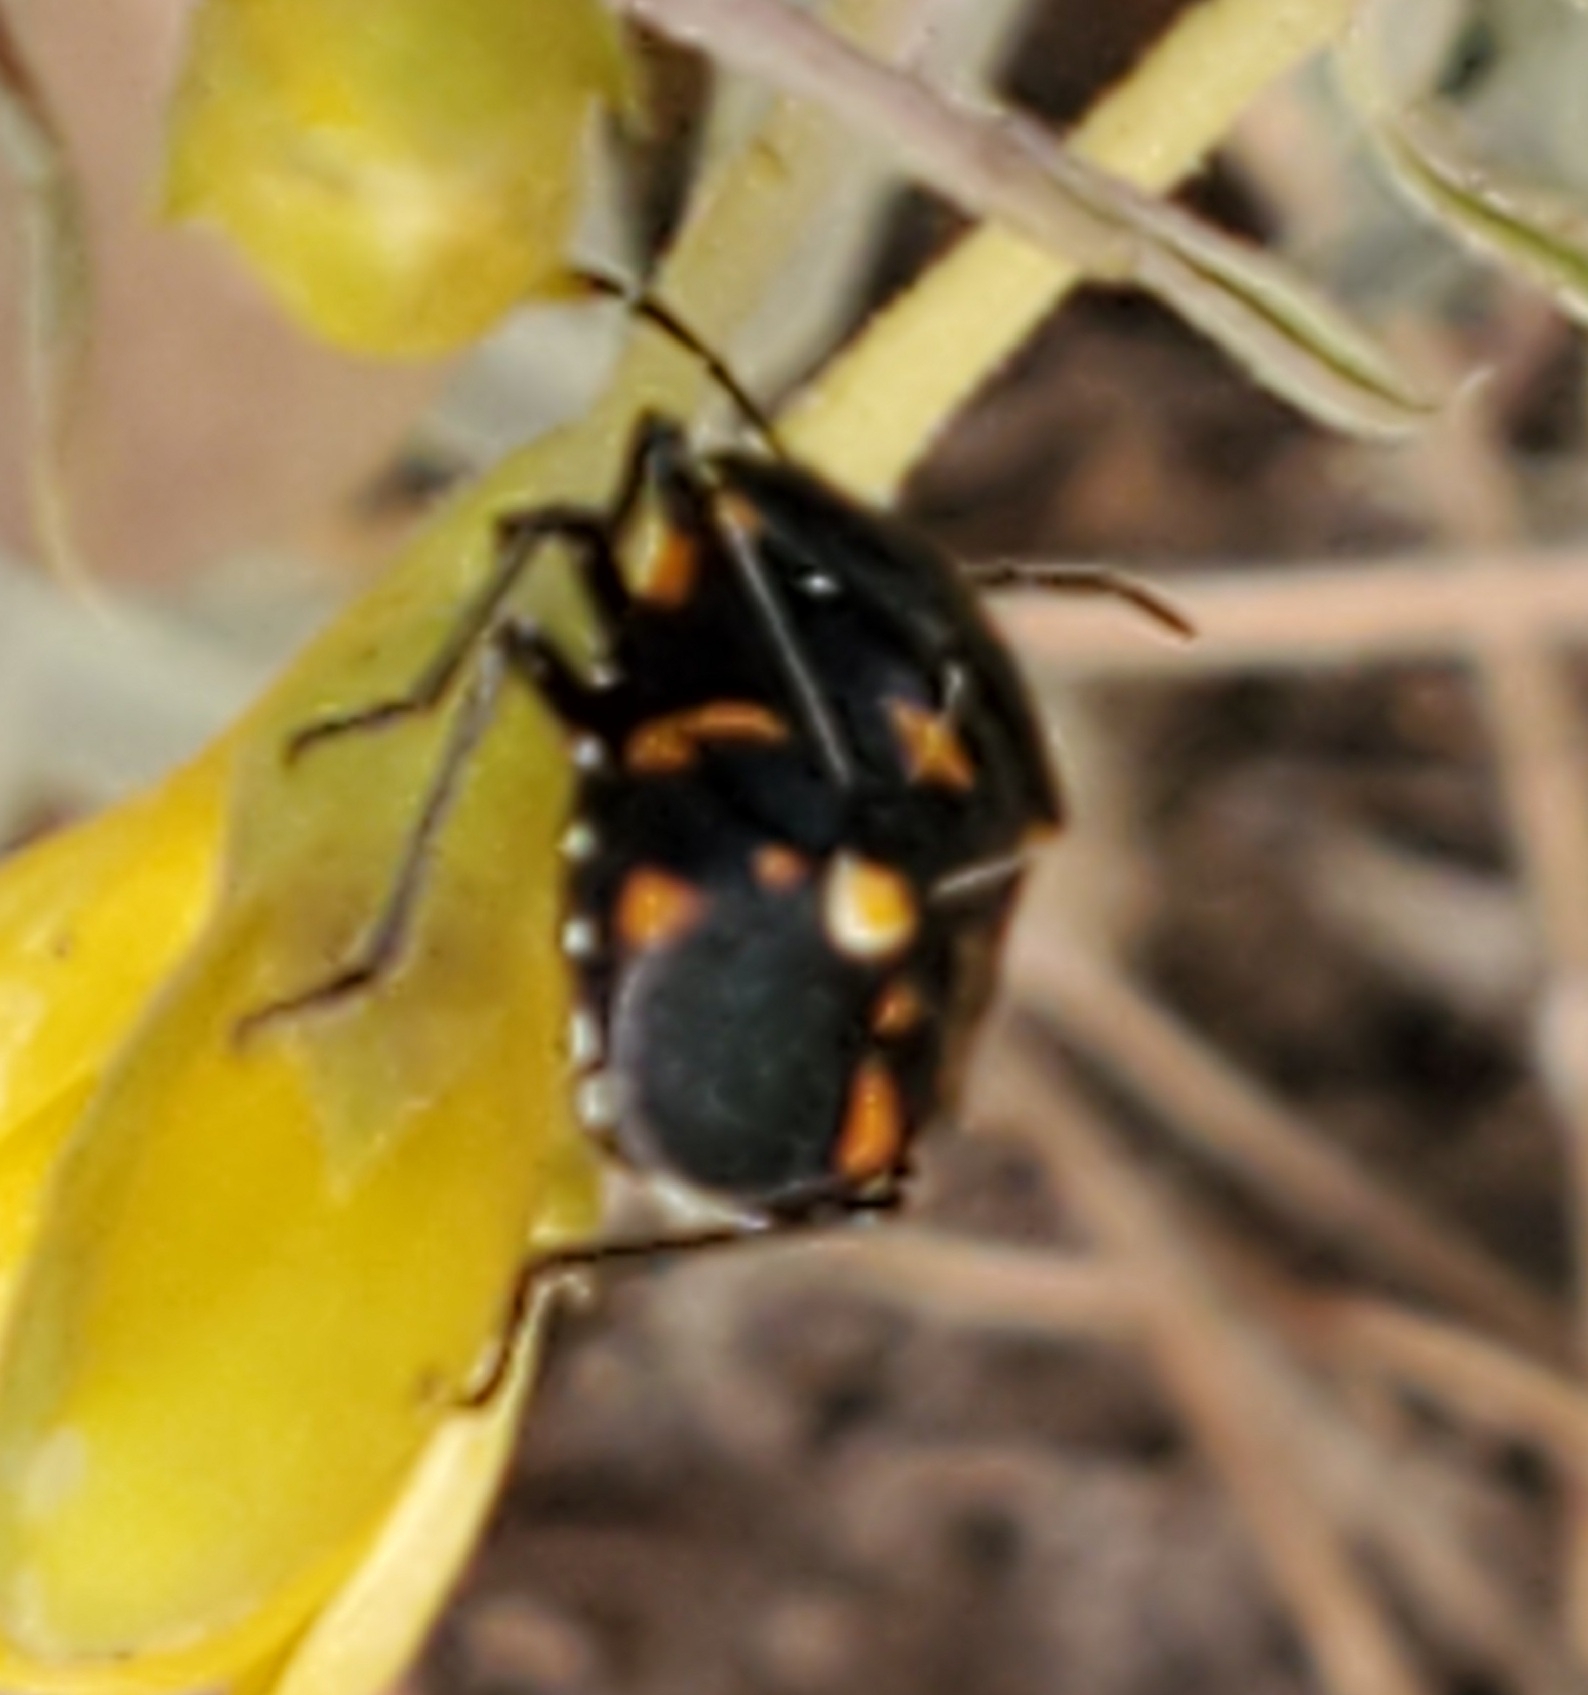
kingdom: Animalia
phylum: Arthropoda
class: Insecta
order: Hemiptera
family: Pentatomidae
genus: Murgantia
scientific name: Murgantia histrionica
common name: Harlequin bug
